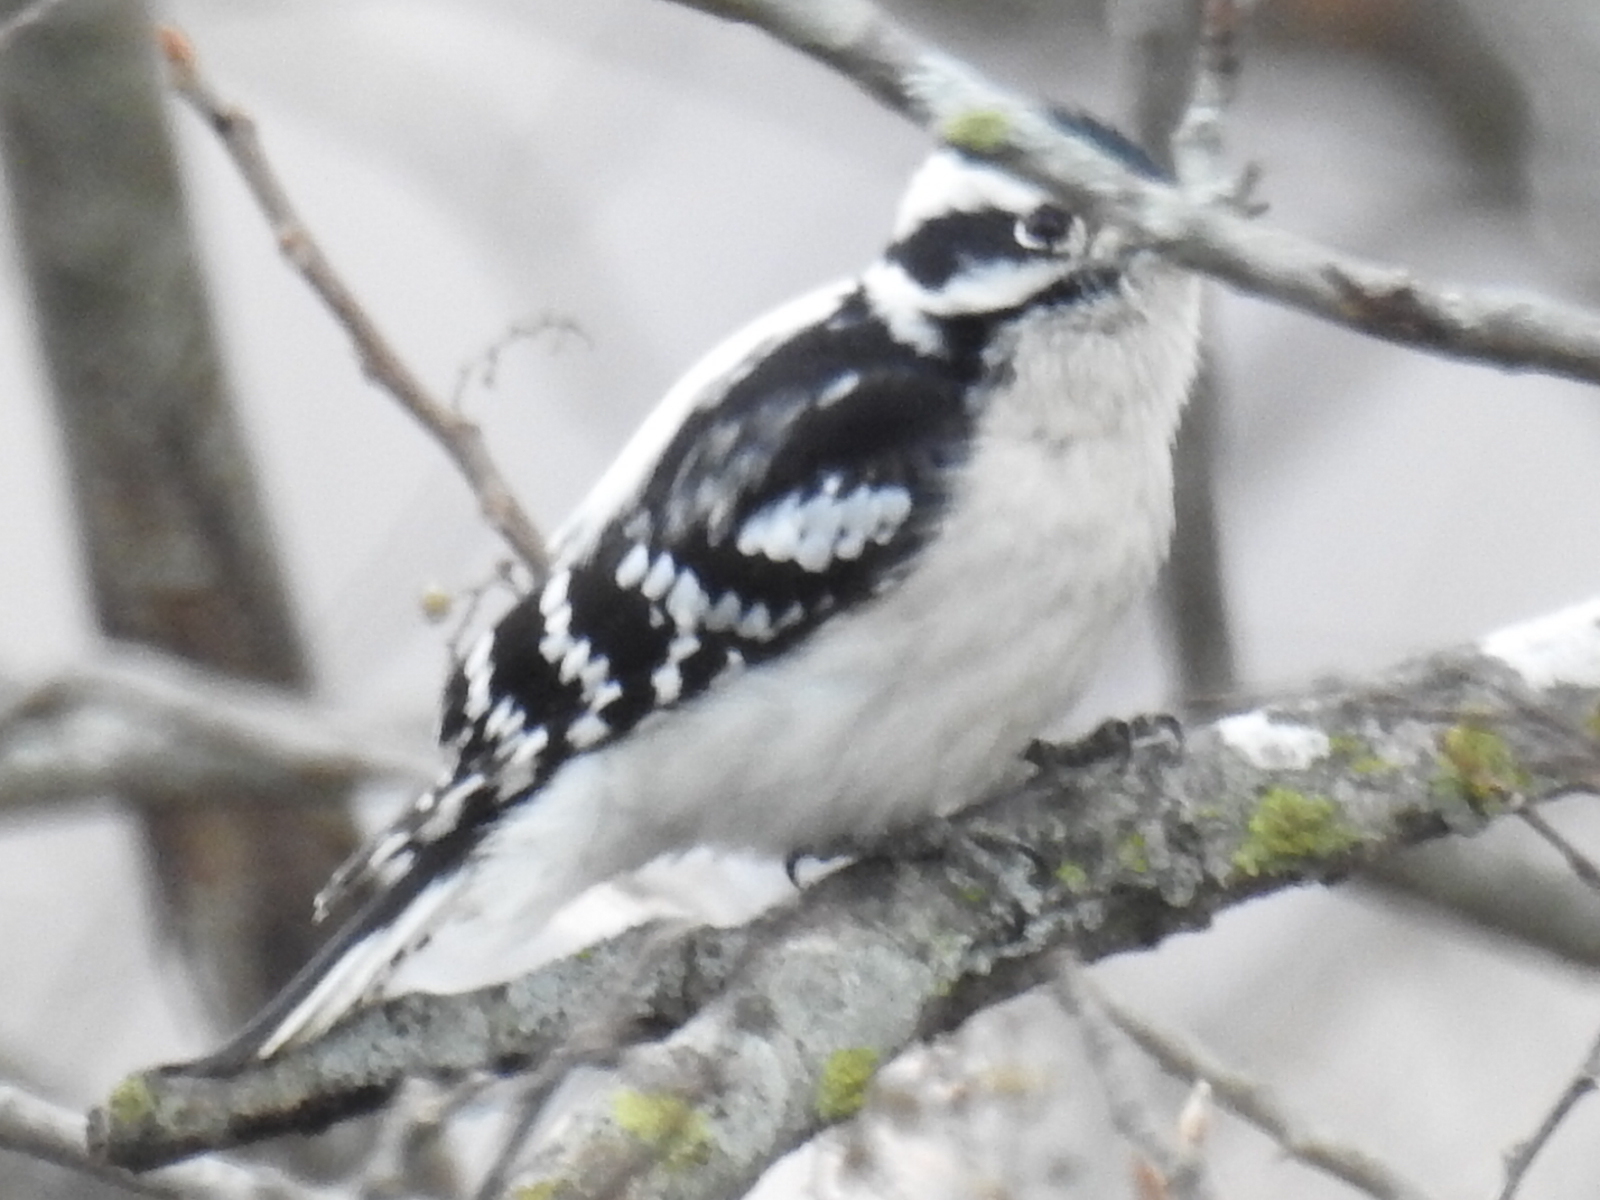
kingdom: Animalia
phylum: Chordata
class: Aves
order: Piciformes
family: Picidae
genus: Dryobates
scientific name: Dryobates pubescens
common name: Downy woodpecker
